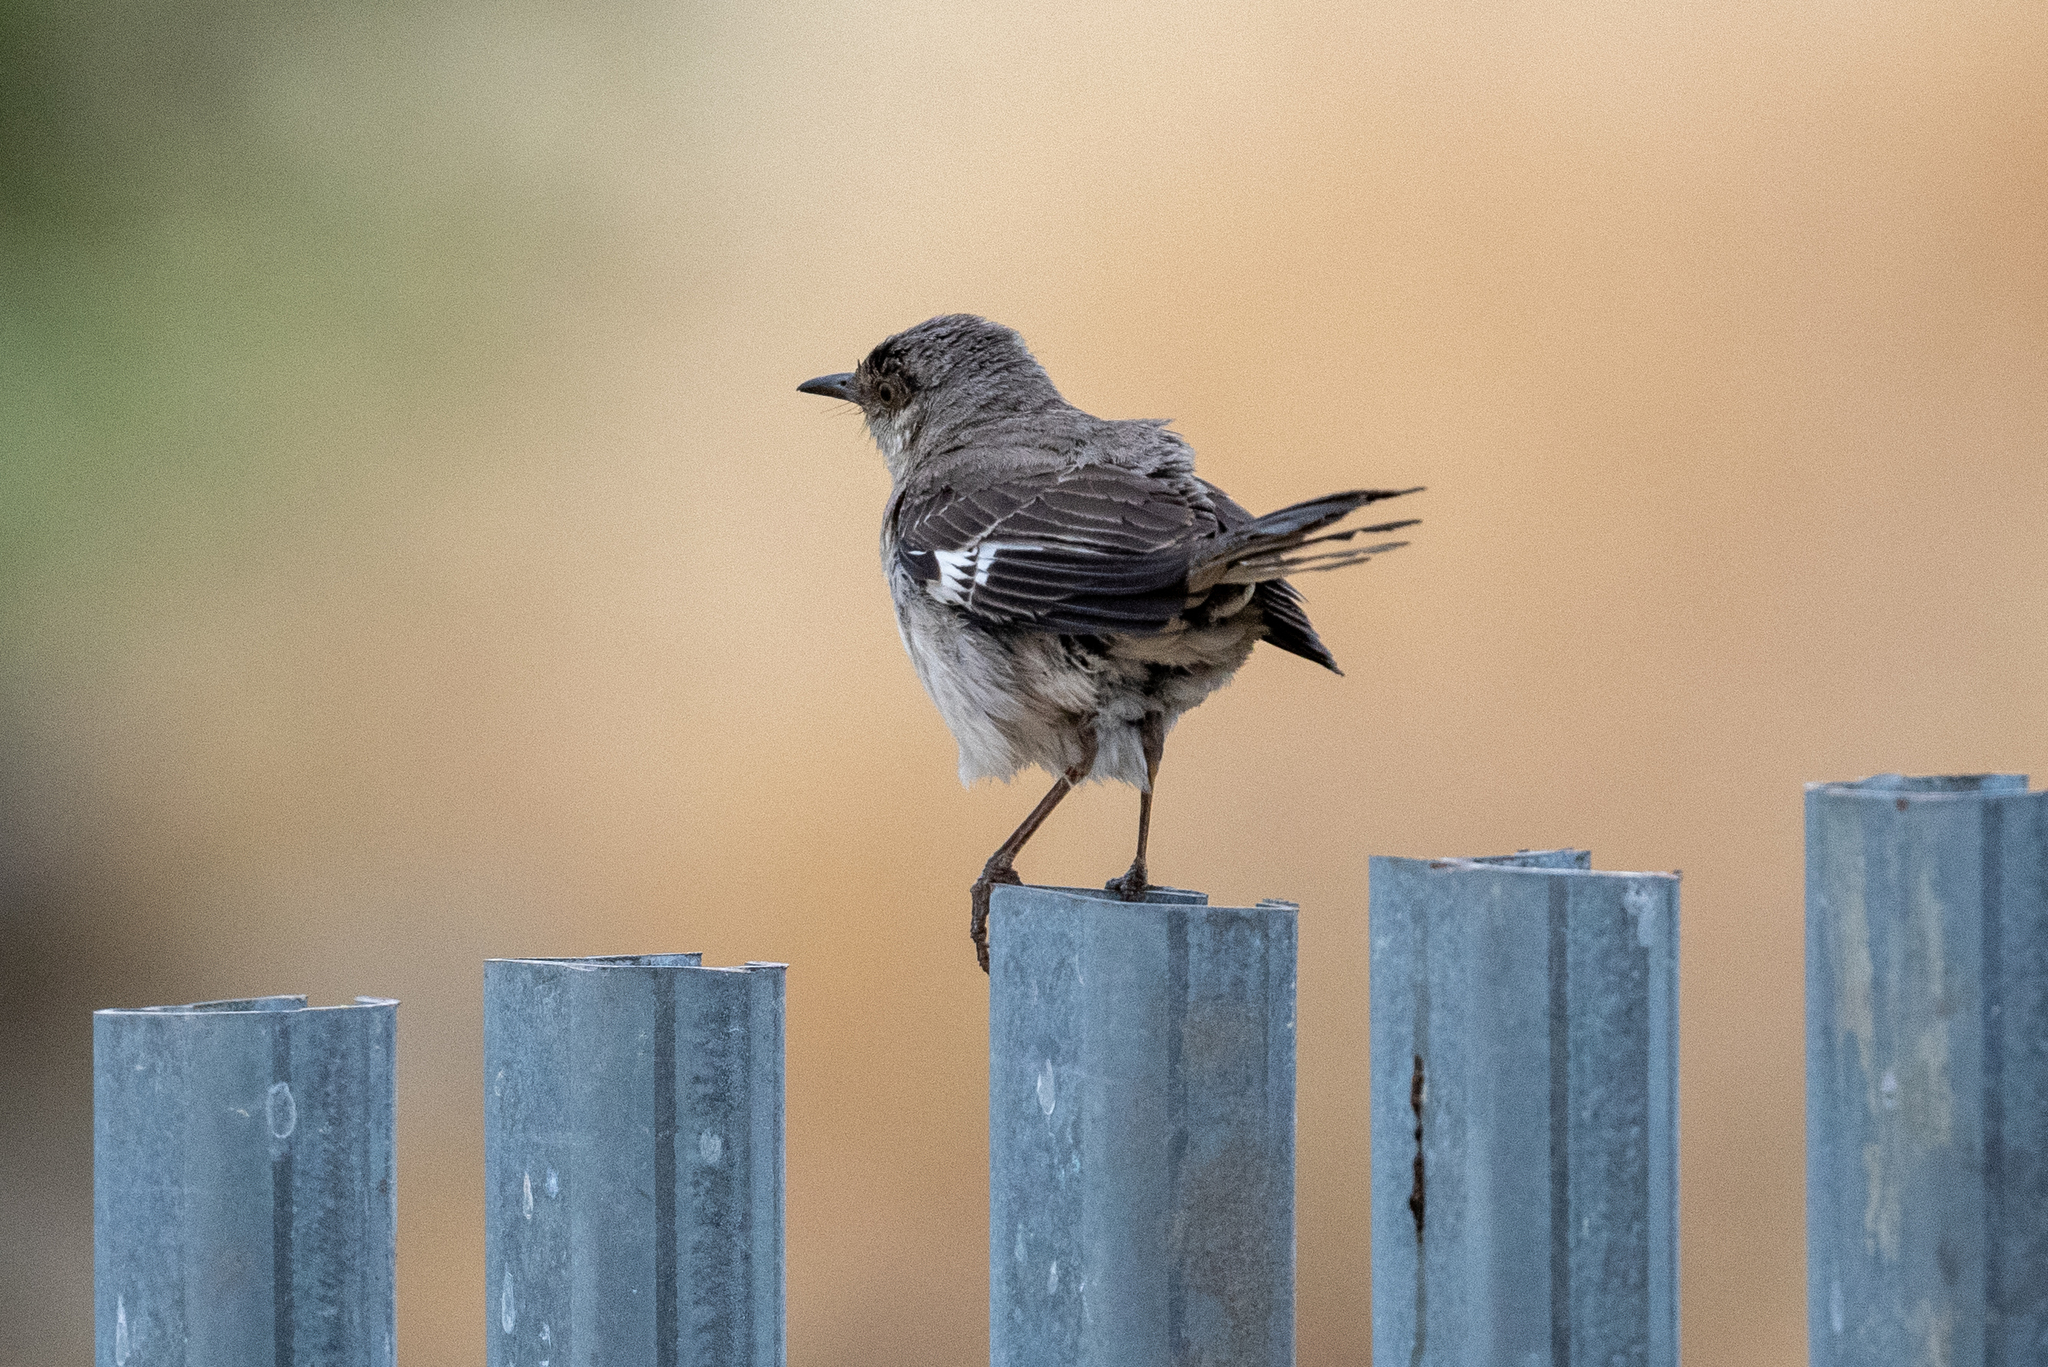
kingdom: Animalia
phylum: Chordata
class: Aves
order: Passeriformes
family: Mimidae
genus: Mimus
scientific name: Mimus polyglottos
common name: Northern mockingbird
